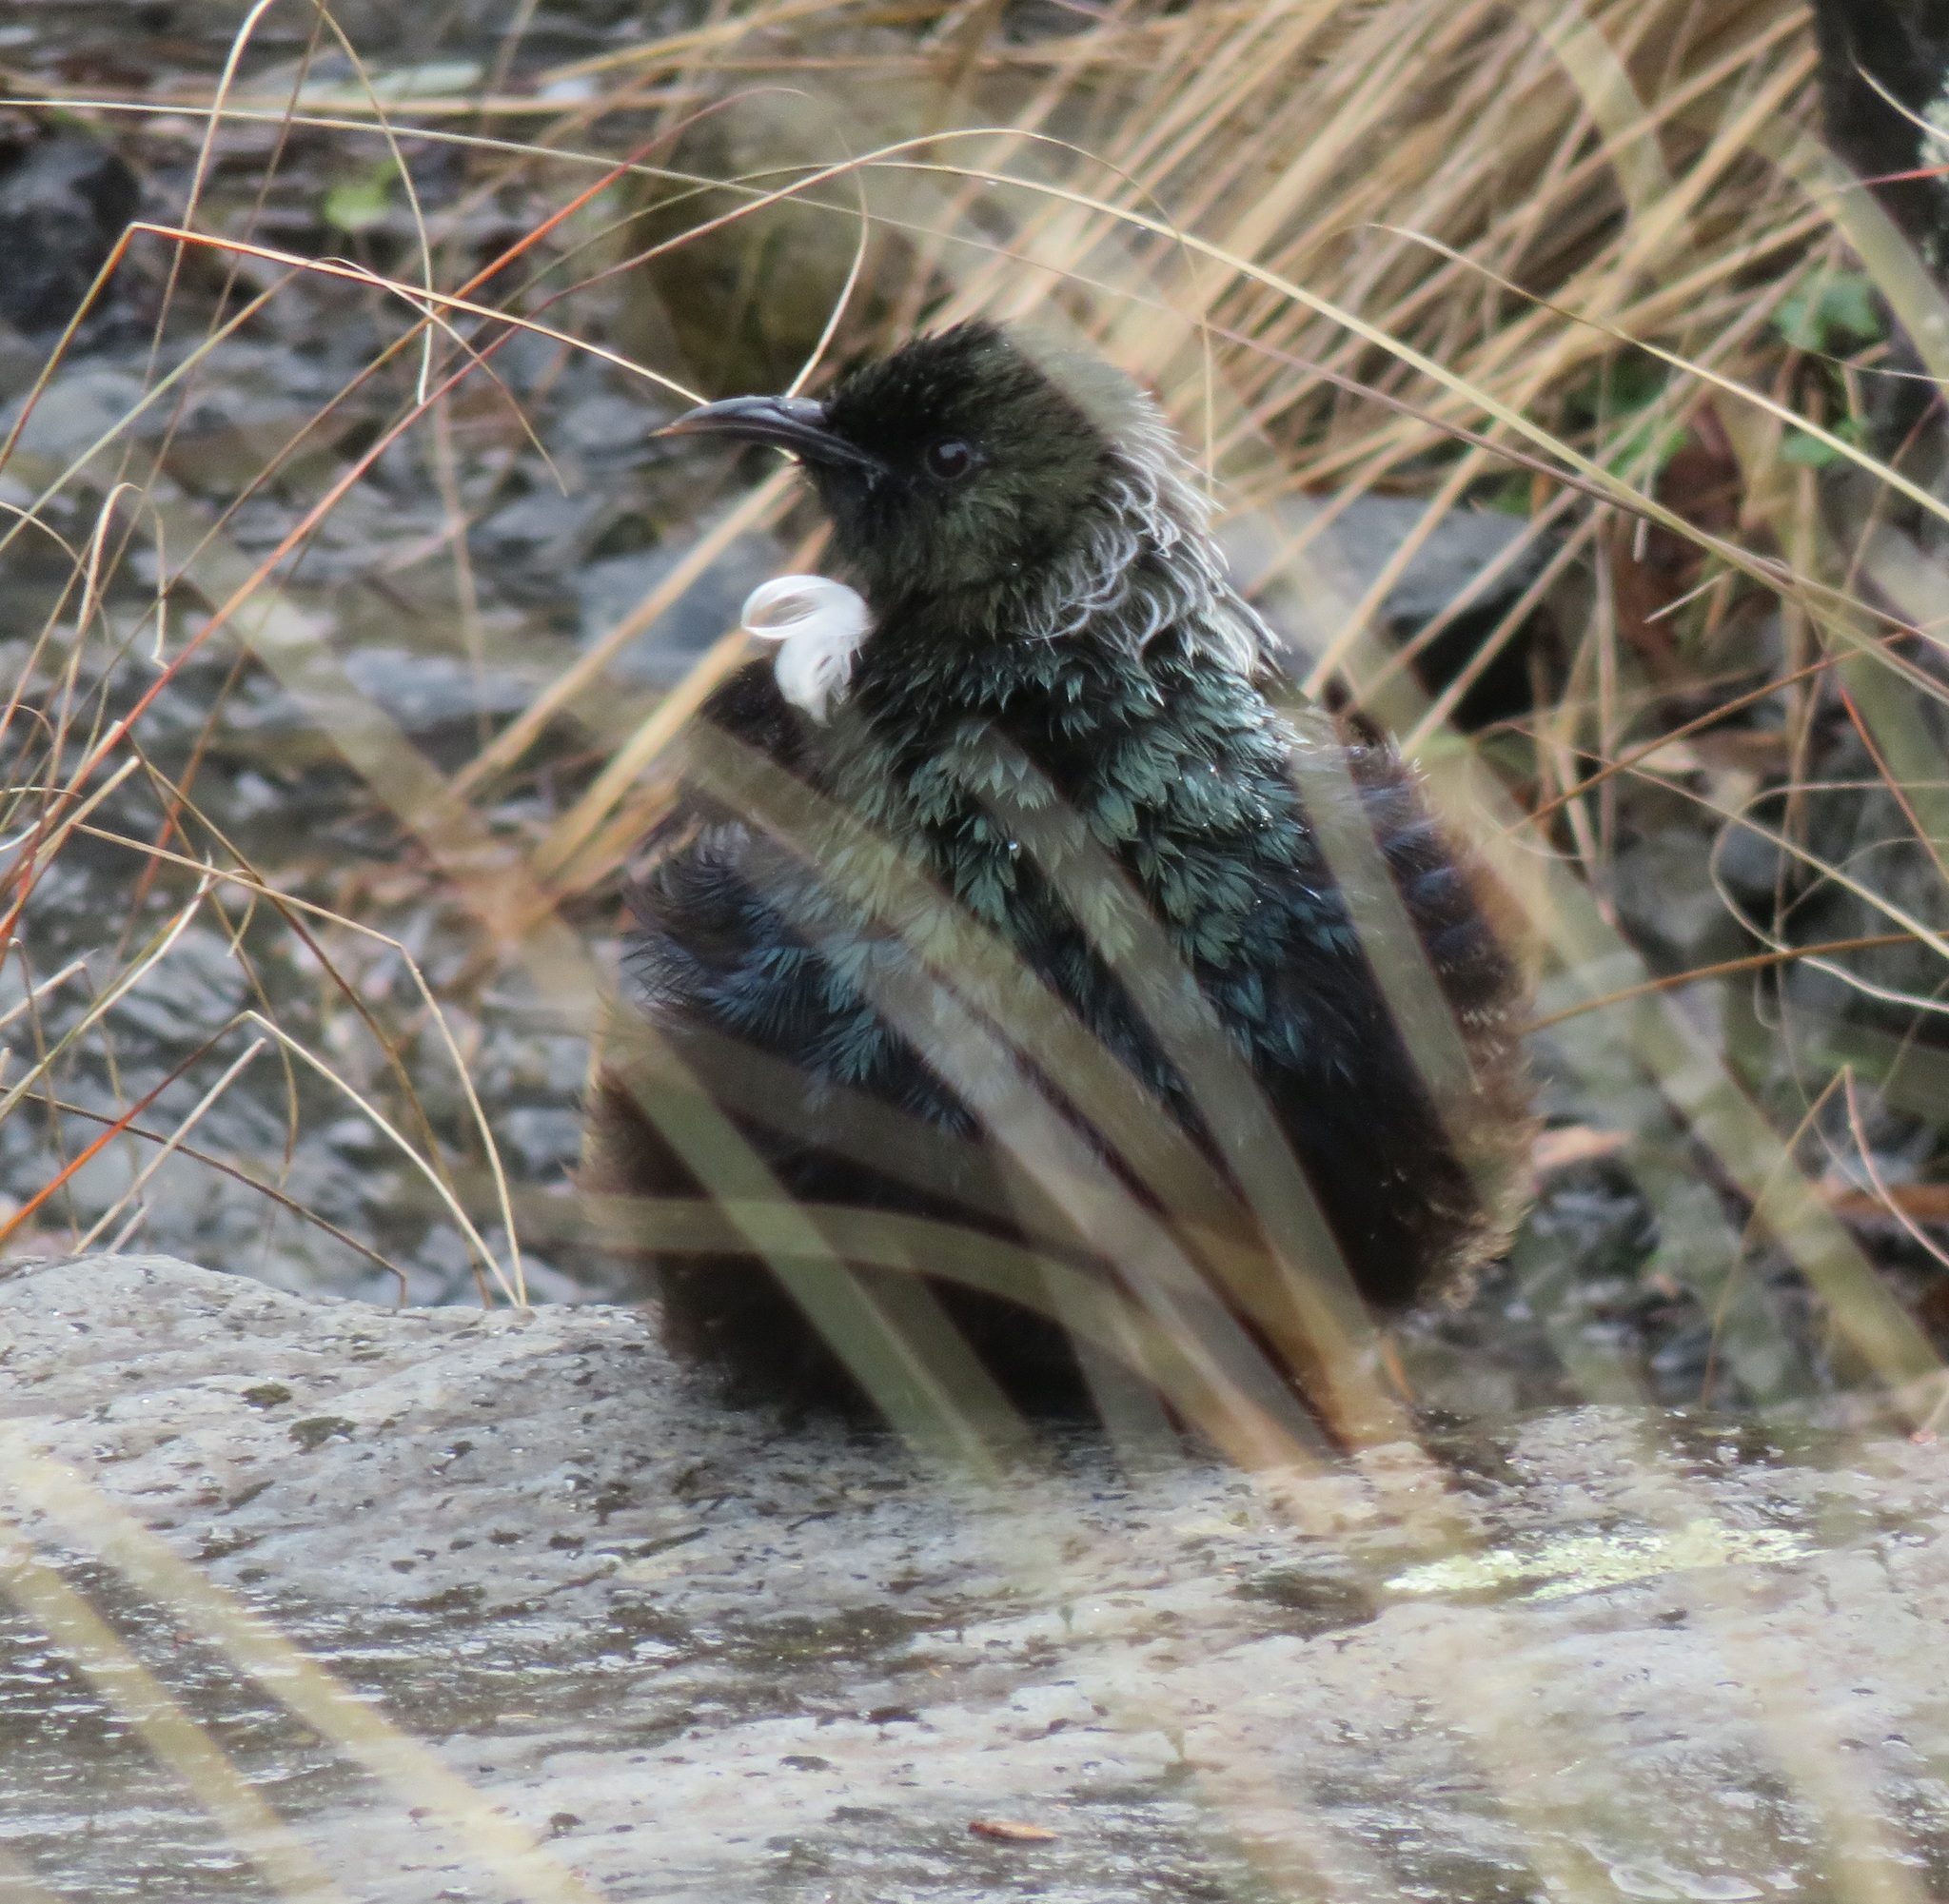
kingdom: Animalia
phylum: Chordata
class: Aves
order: Passeriformes
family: Meliphagidae
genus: Prosthemadera
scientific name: Prosthemadera novaeseelandiae
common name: Tui
